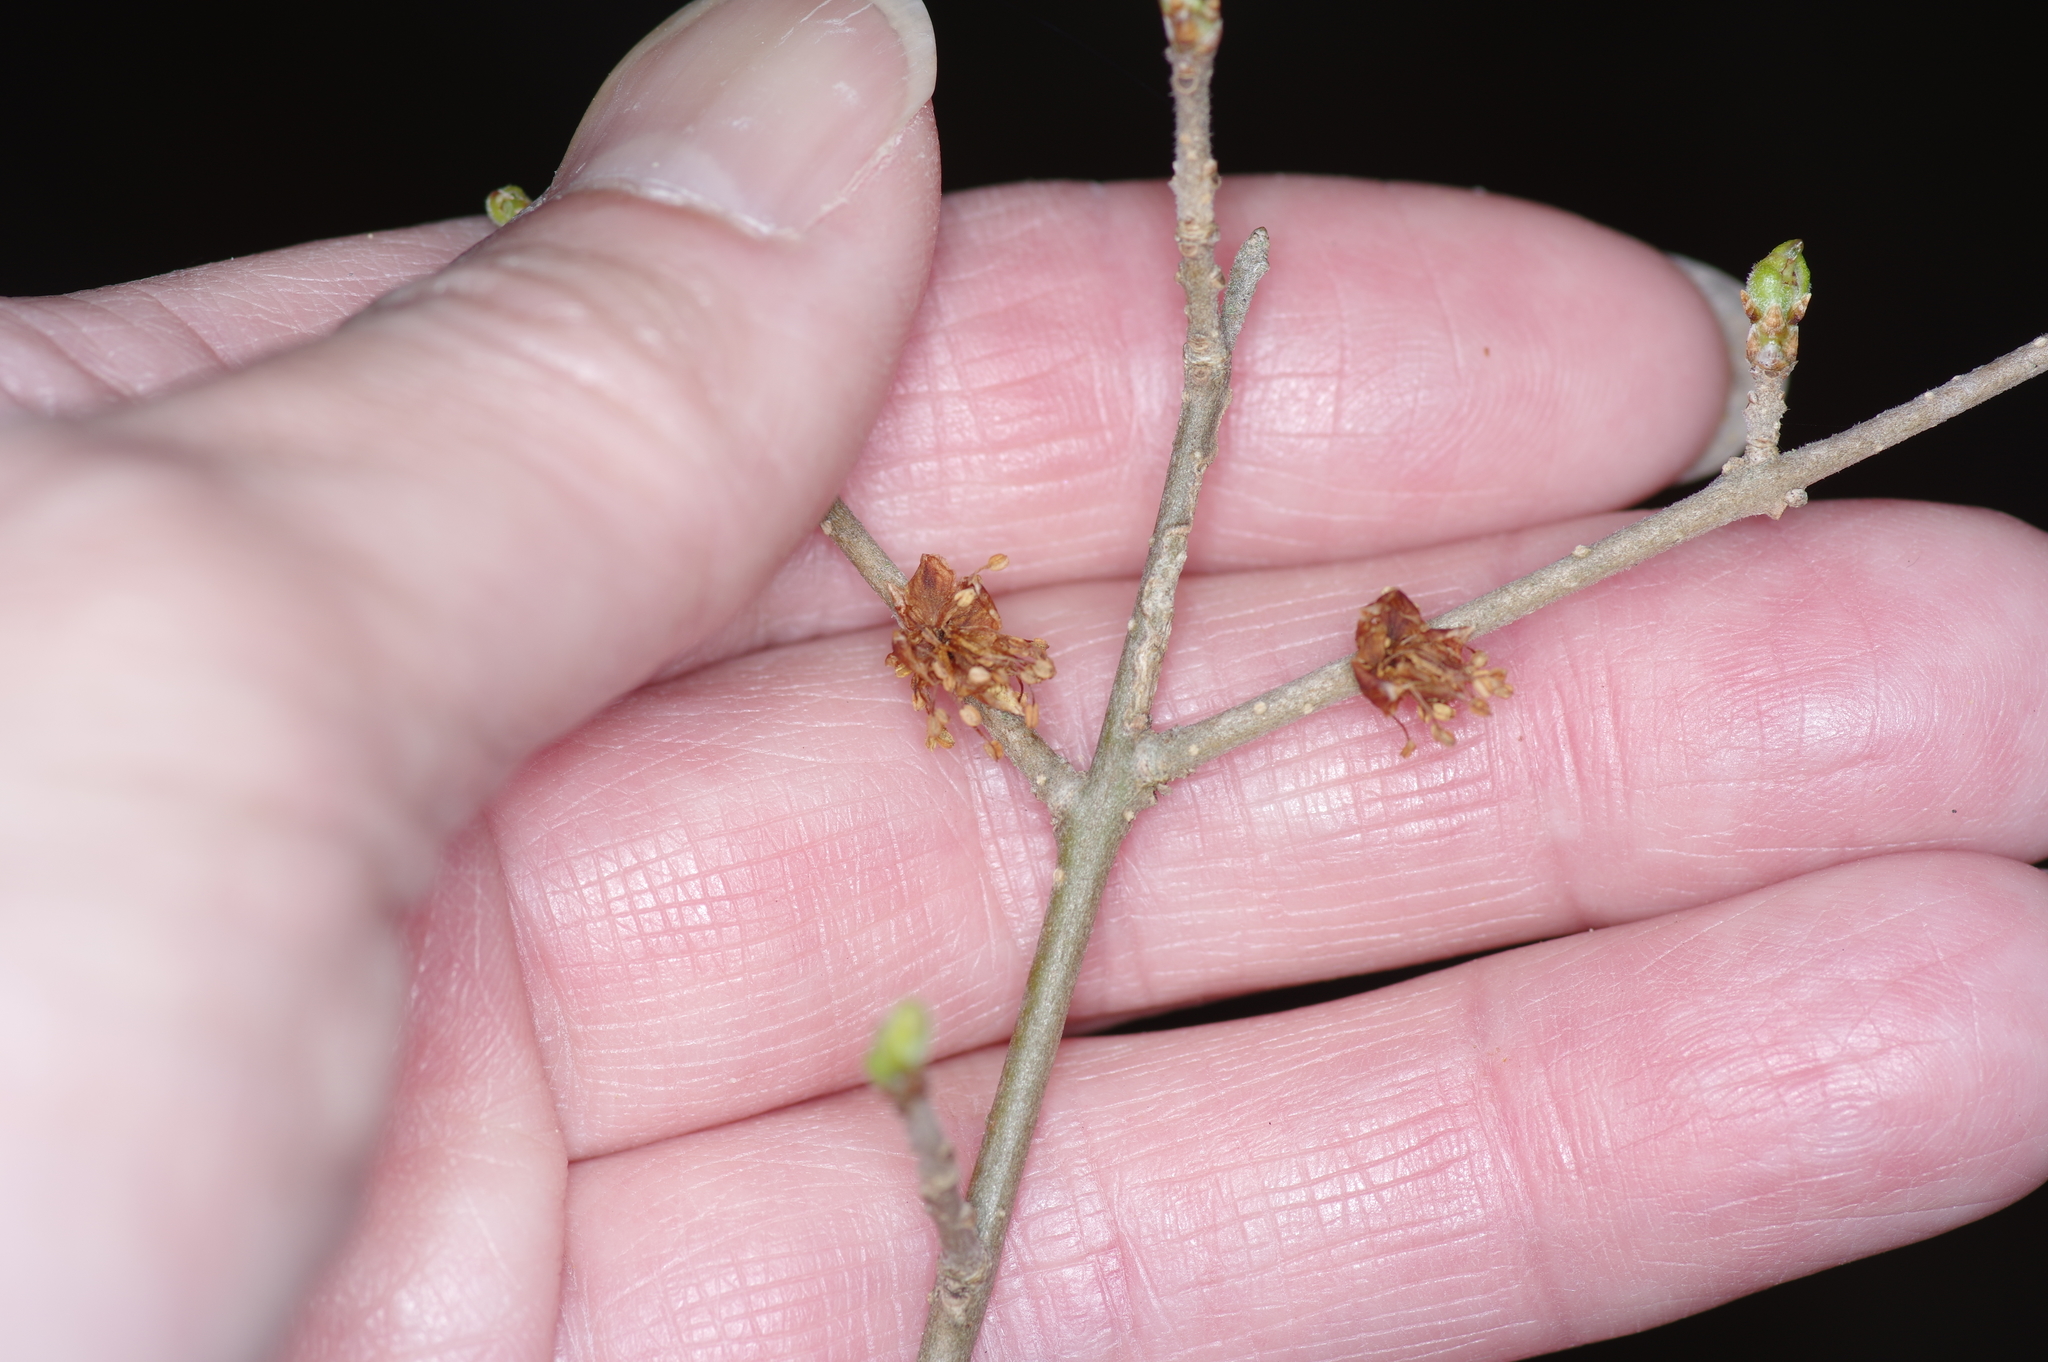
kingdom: Plantae
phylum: Tracheophyta
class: Magnoliopsida
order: Lamiales
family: Oleaceae
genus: Forestiera
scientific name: Forestiera pubescens
